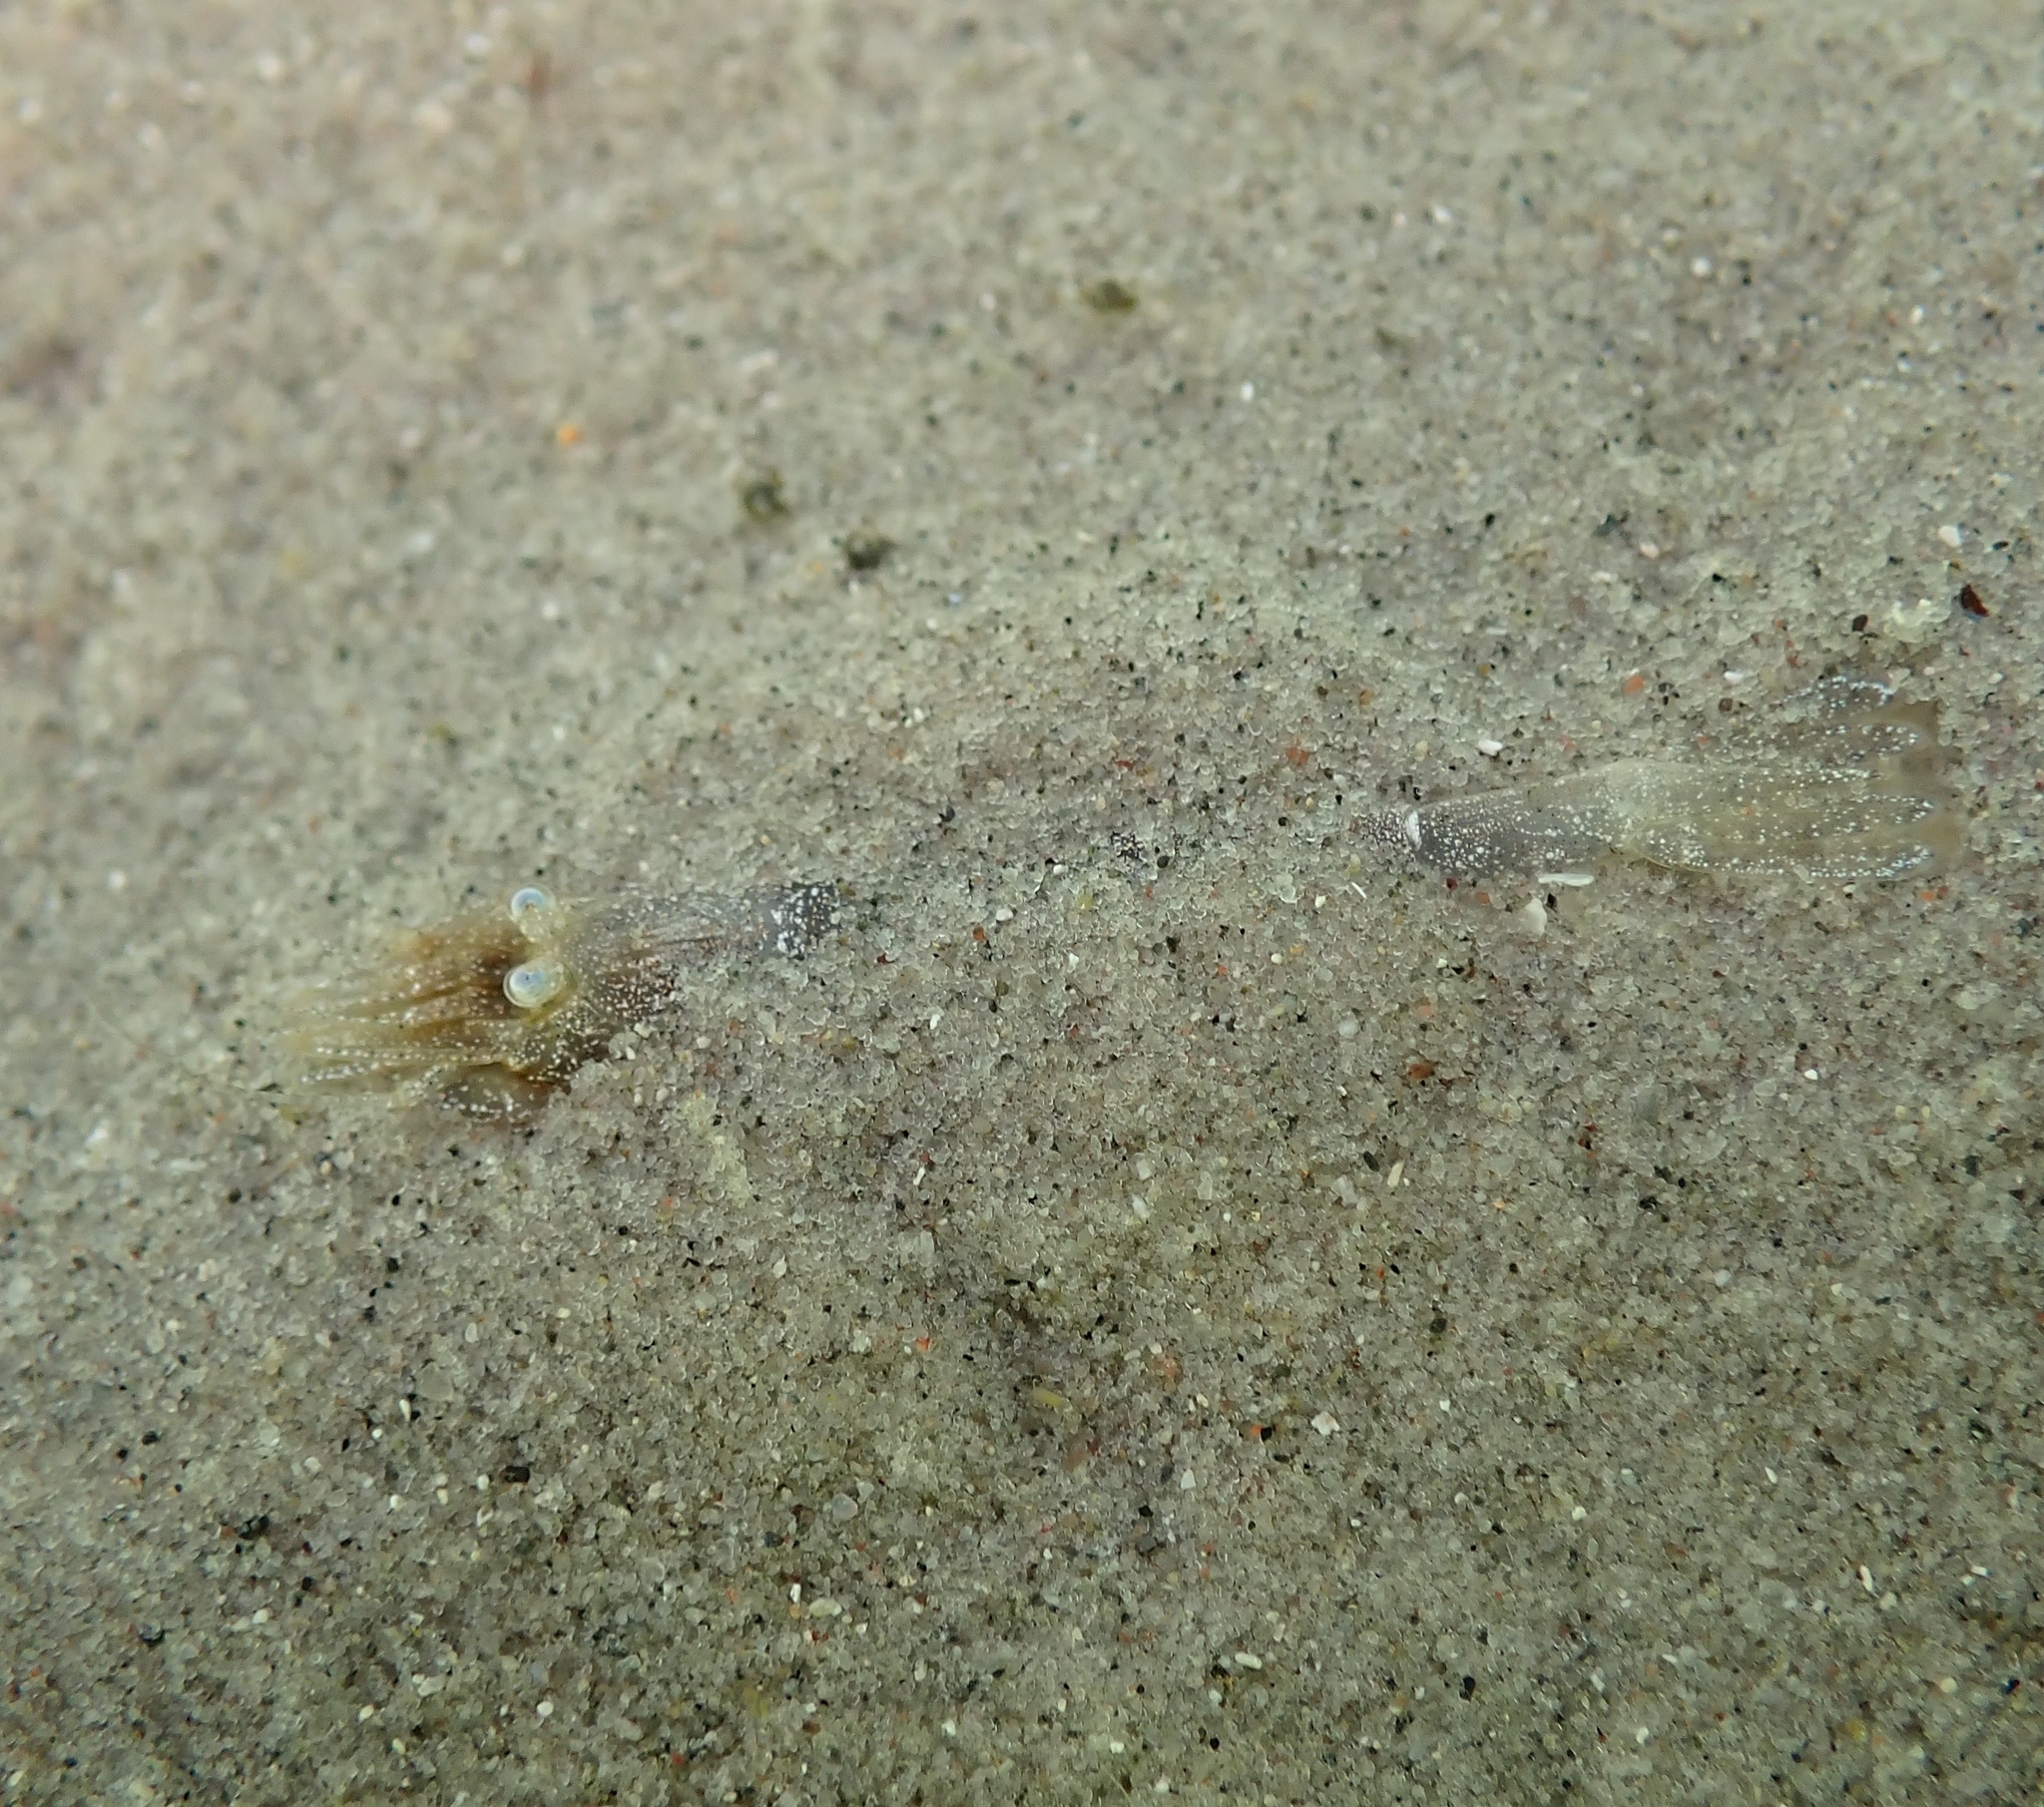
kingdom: Animalia
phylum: Arthropoda
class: Malacostraca
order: Decapoda
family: Crangonidae
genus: Crangon
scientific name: Crangon crangon
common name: Brown shrimp
